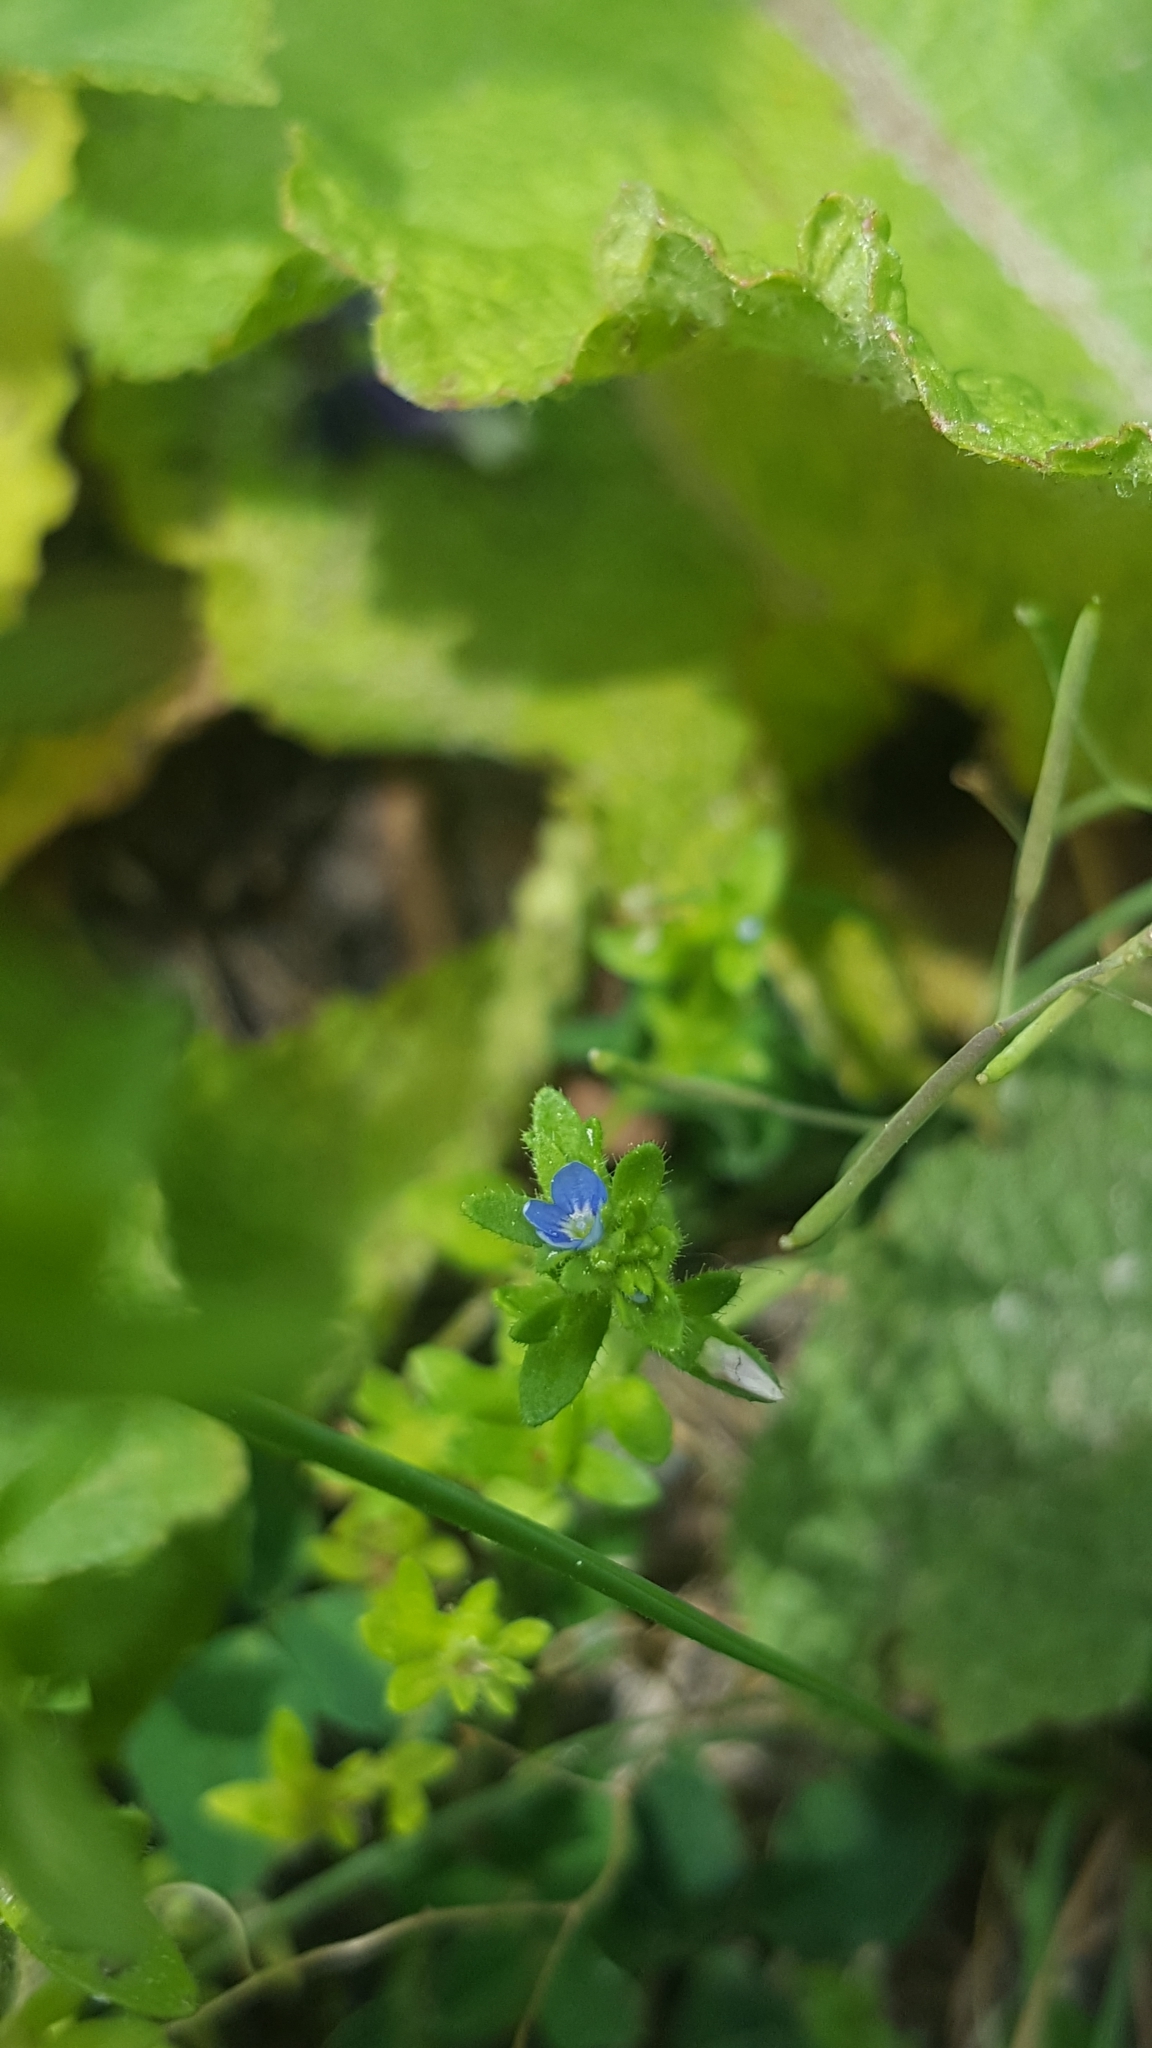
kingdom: Plantae
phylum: Tracheophyta
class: Magnoliopsida
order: Lamiales
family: Plantaginaceae
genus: Veronica
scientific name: Veronica arvensis
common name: Corn speedwell
